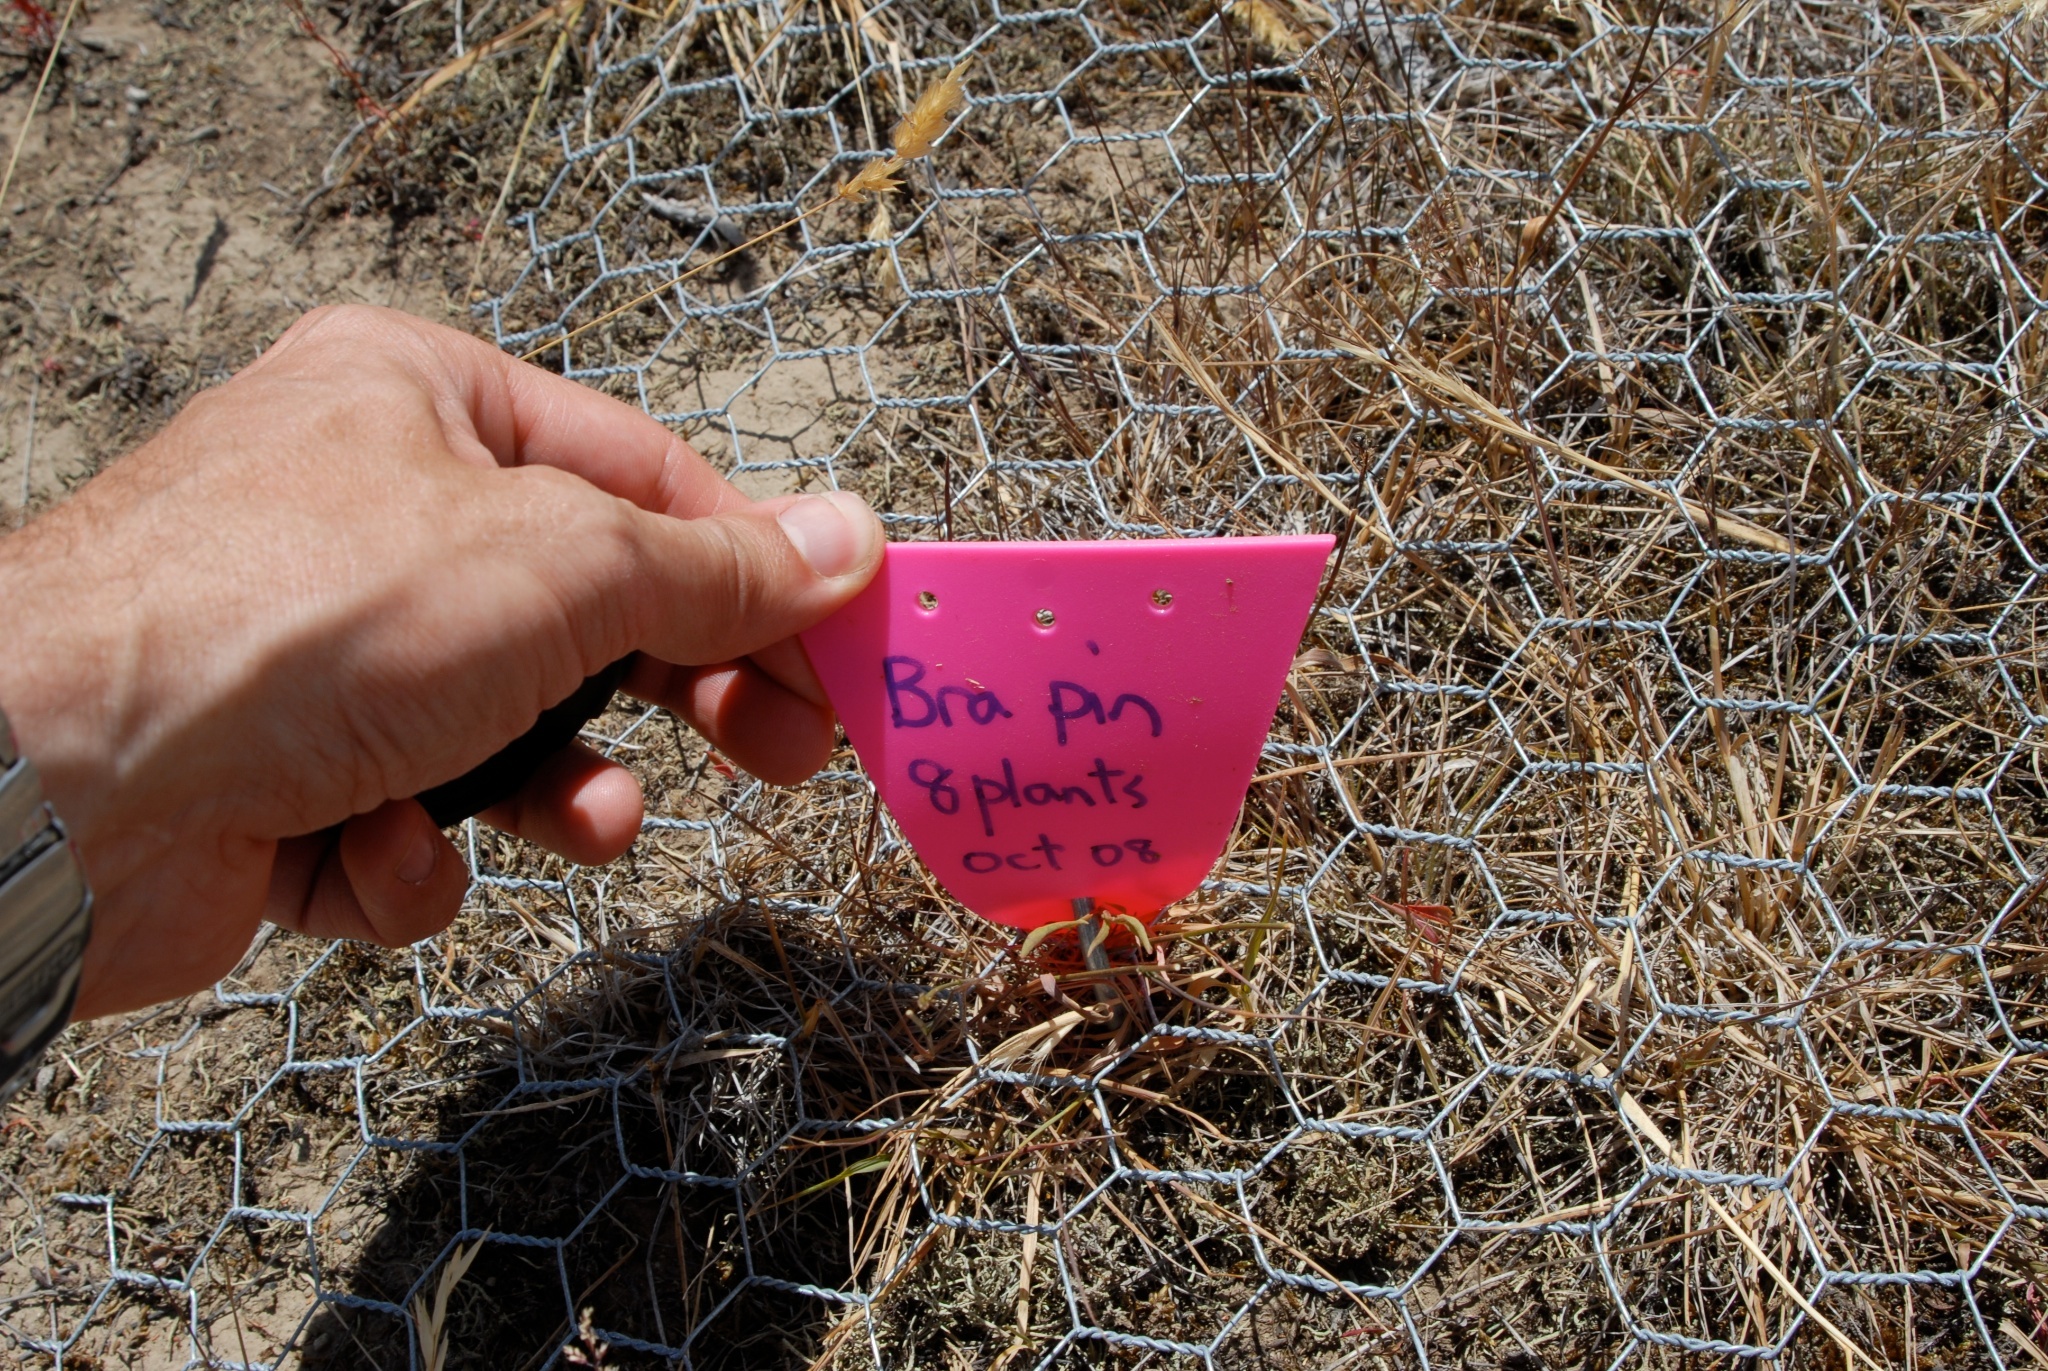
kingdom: Plantae
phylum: Tracheophyta
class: Magnoliopsida
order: Asterales
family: Asteraceae
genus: Brachyscome
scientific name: Brachyscome pinnata
